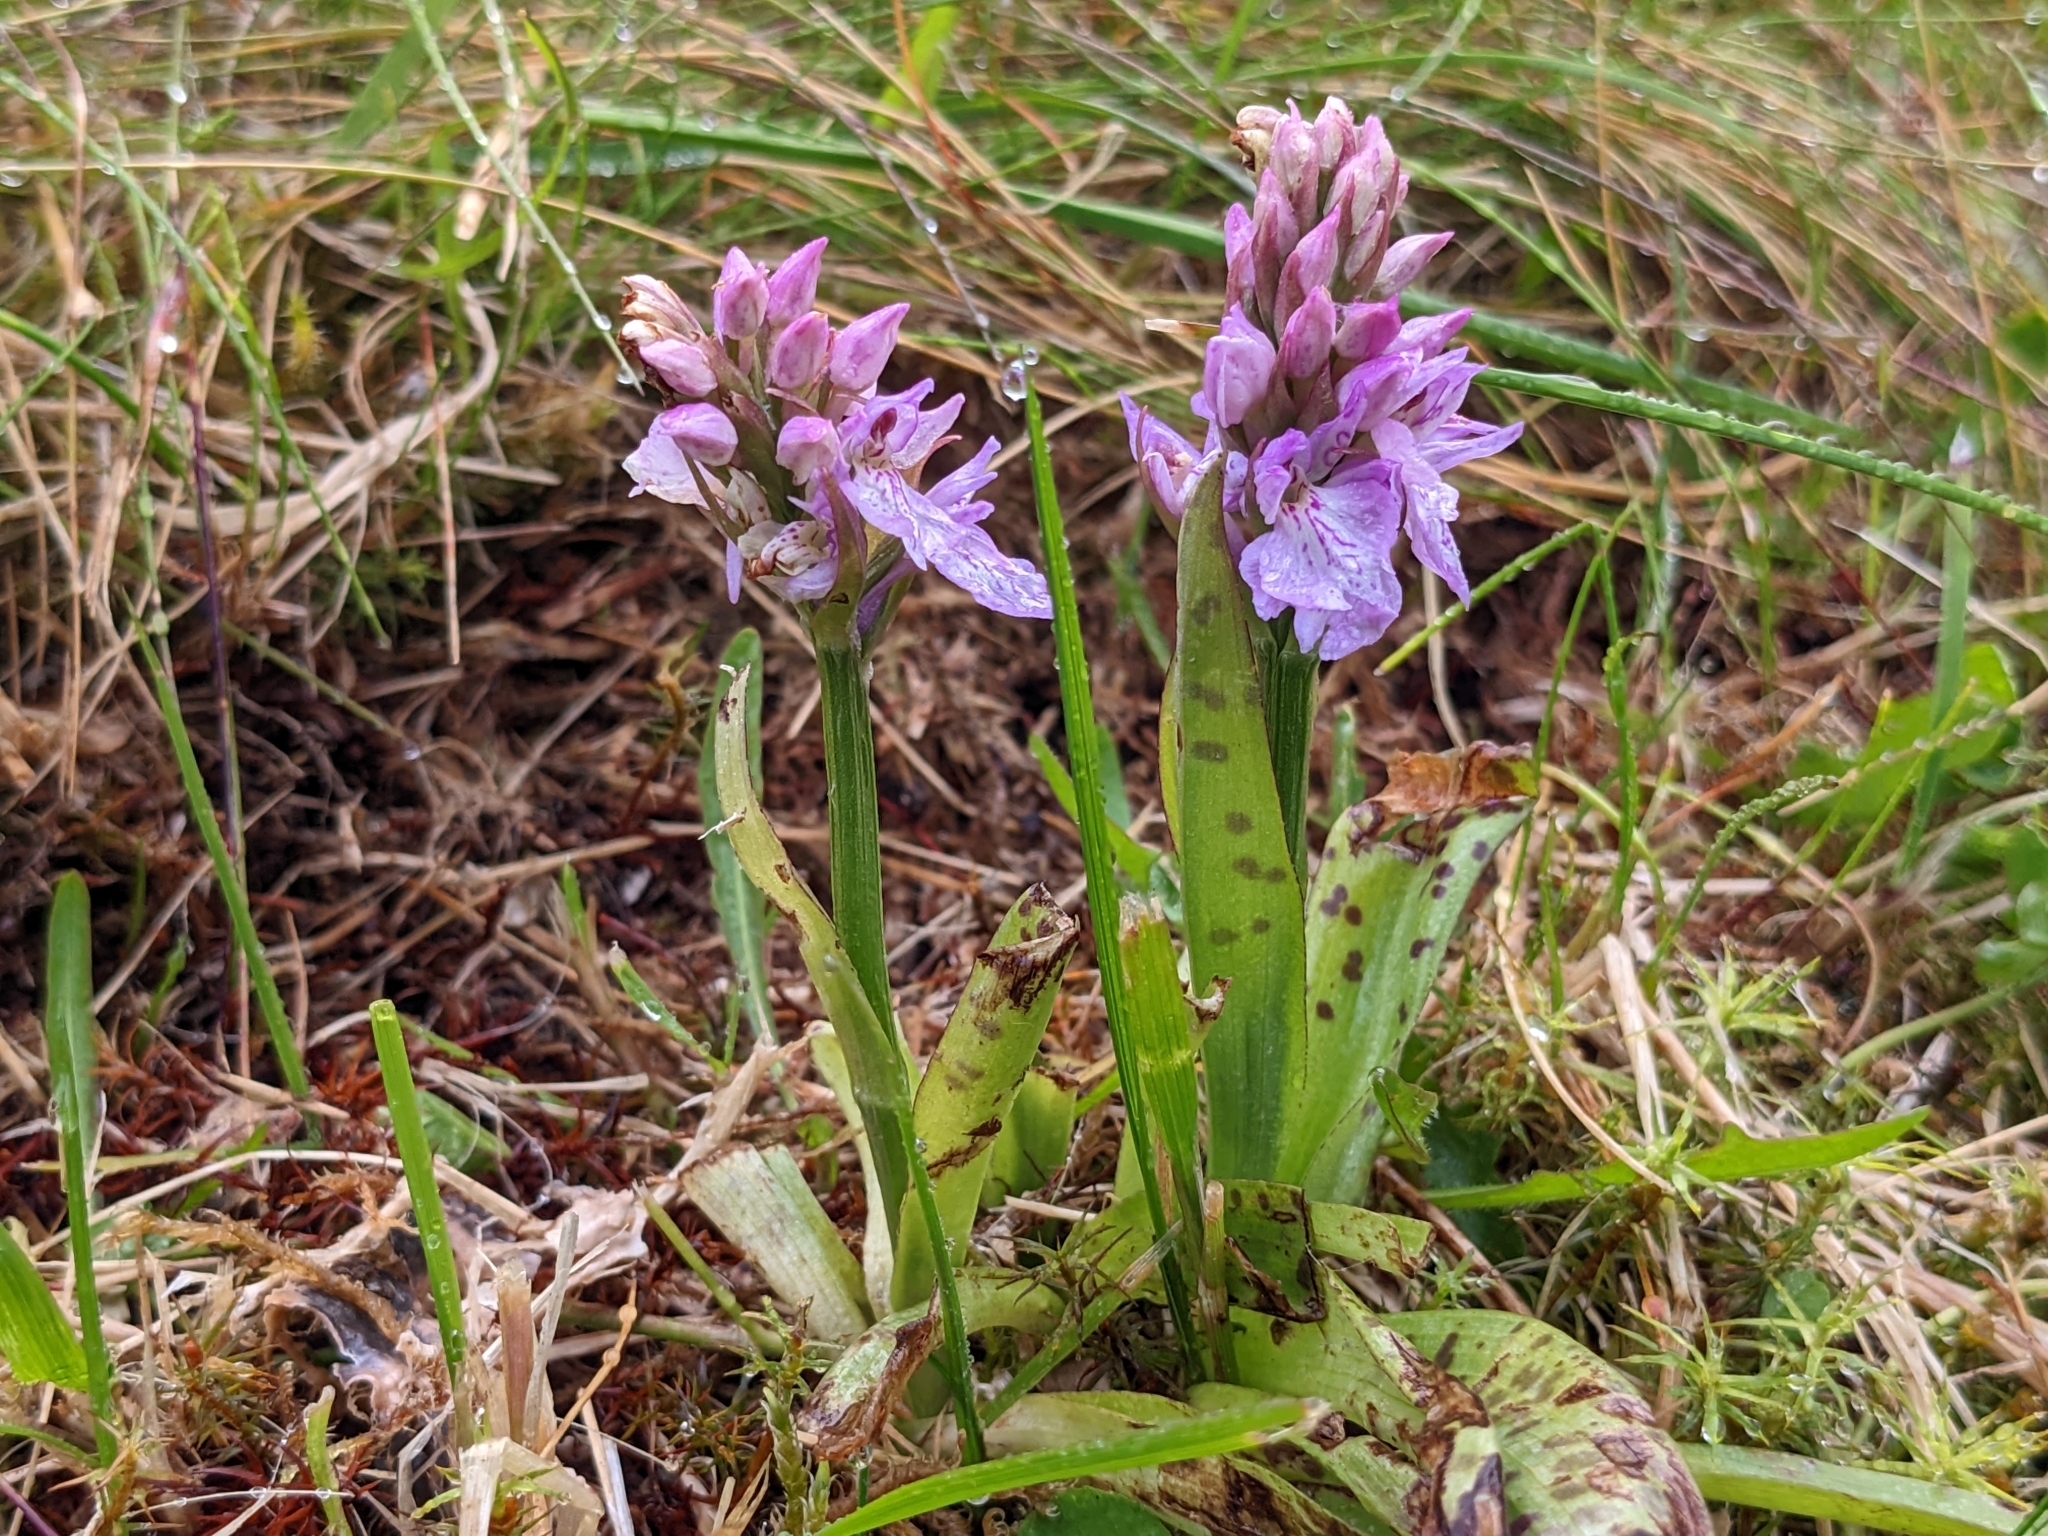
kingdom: Plantae
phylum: Tracheophyta
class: Liliopsida
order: Asparagales
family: Orchidaceae
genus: Dactylorhiza
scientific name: Dactylorhiza maculata
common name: Heath spotted-orchid
